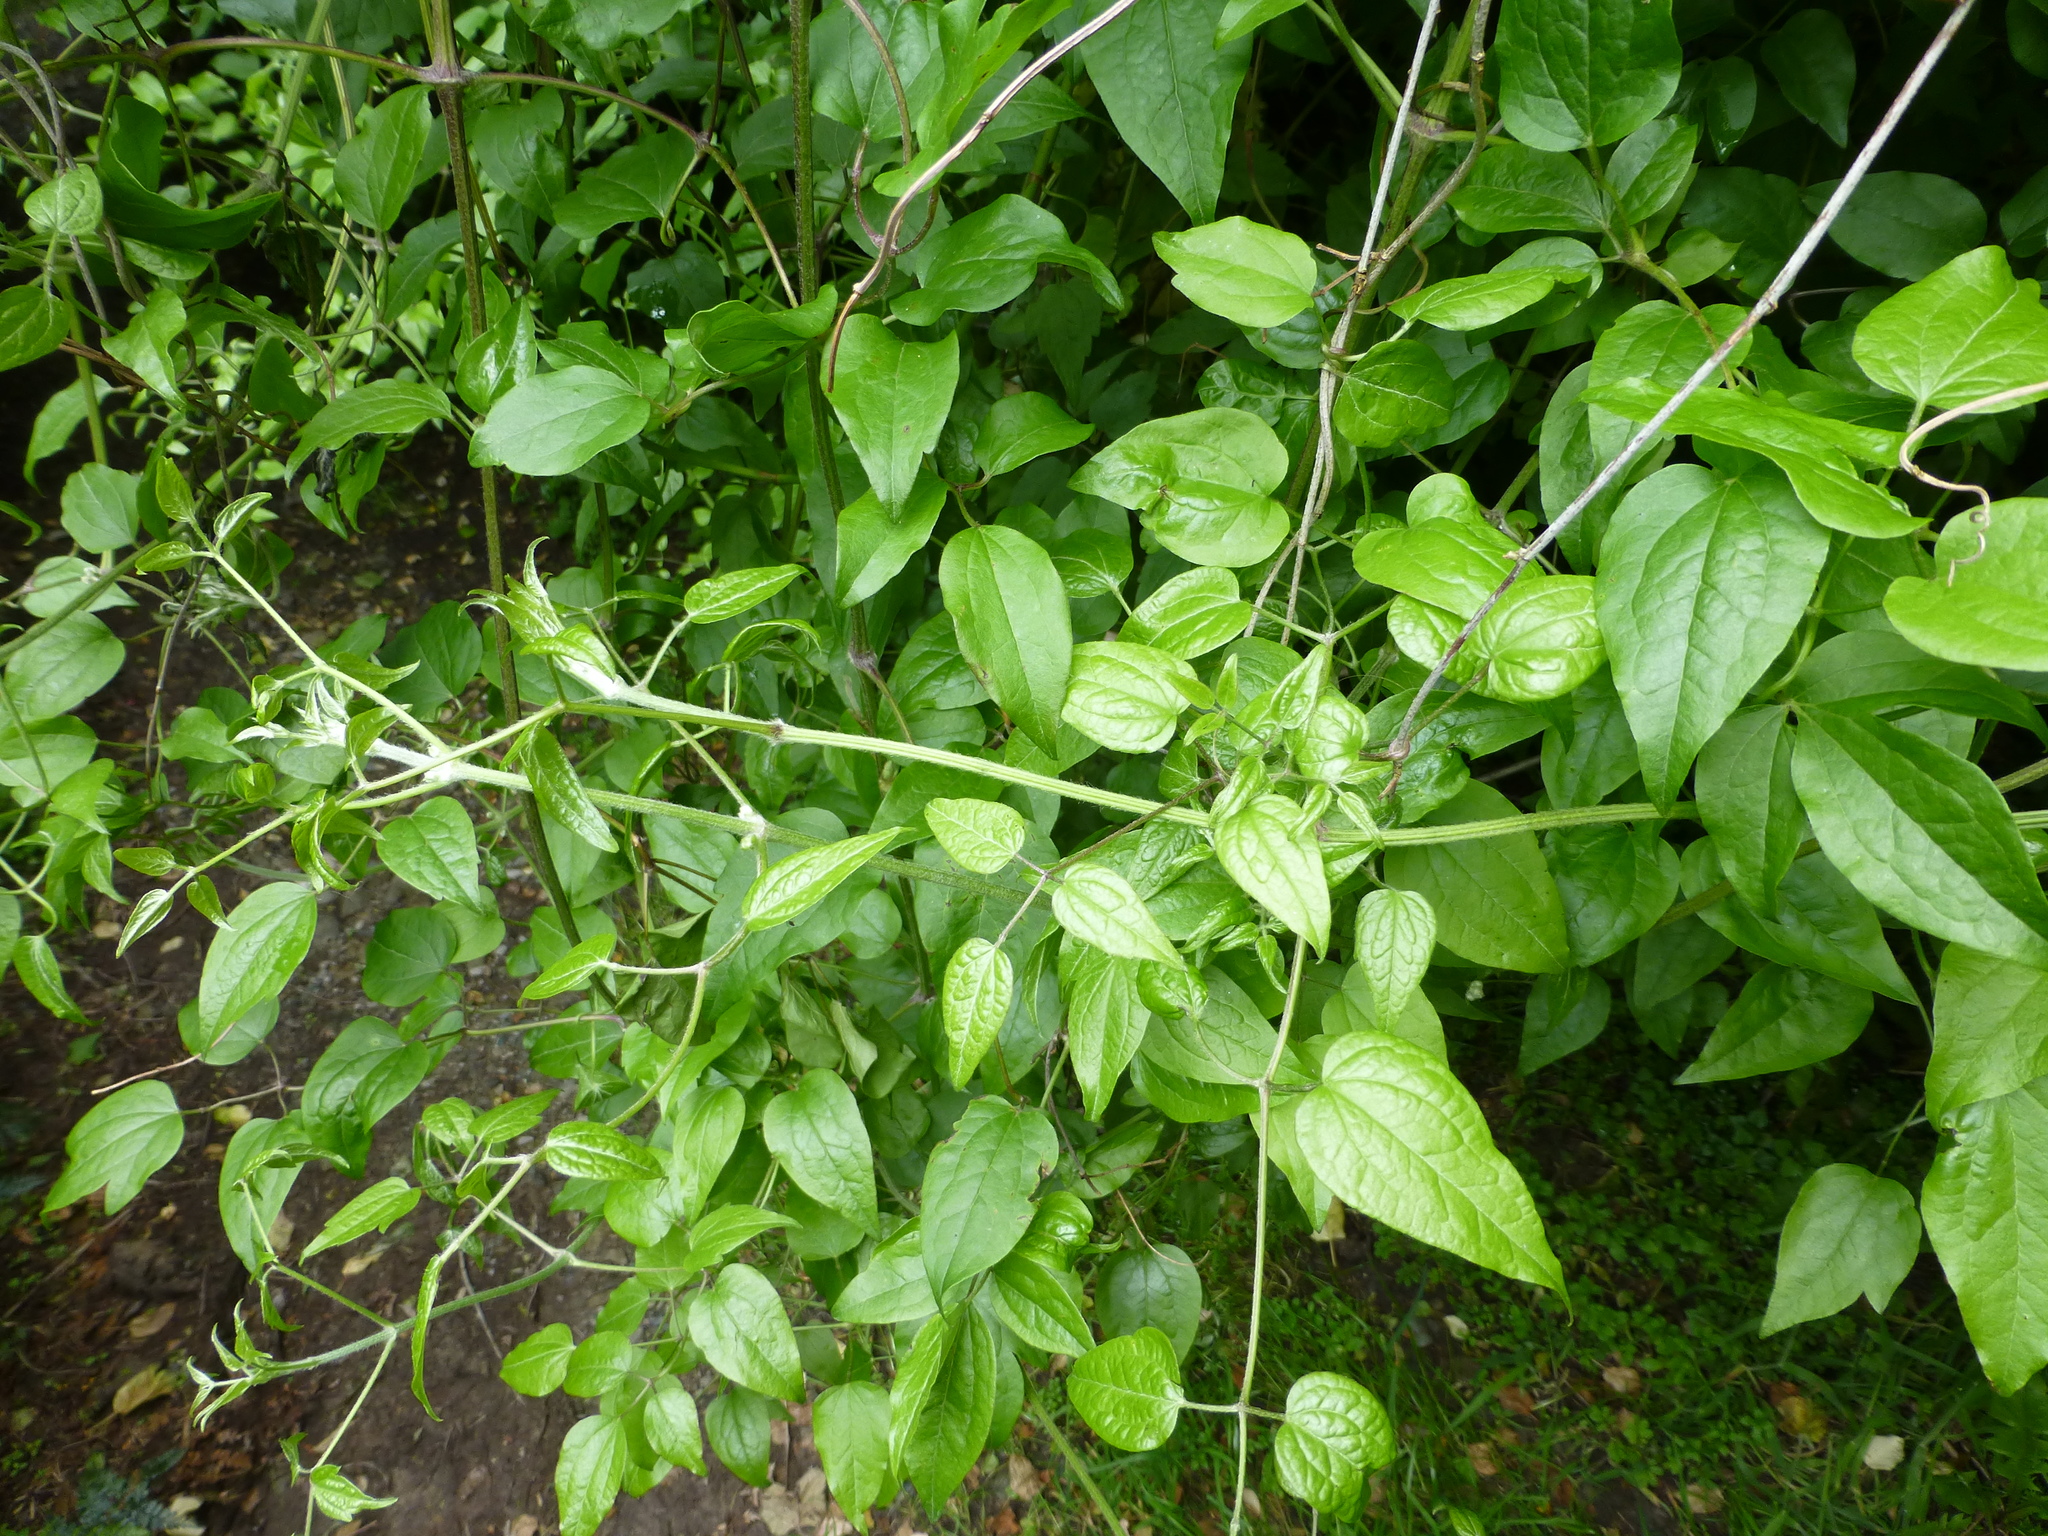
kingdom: Plantae
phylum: Tracheophyta
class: Magnoliopsida
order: Ranunculales
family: Ranunculaceae
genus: Clematis
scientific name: Clematis vitalba
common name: Evergreen clematis
